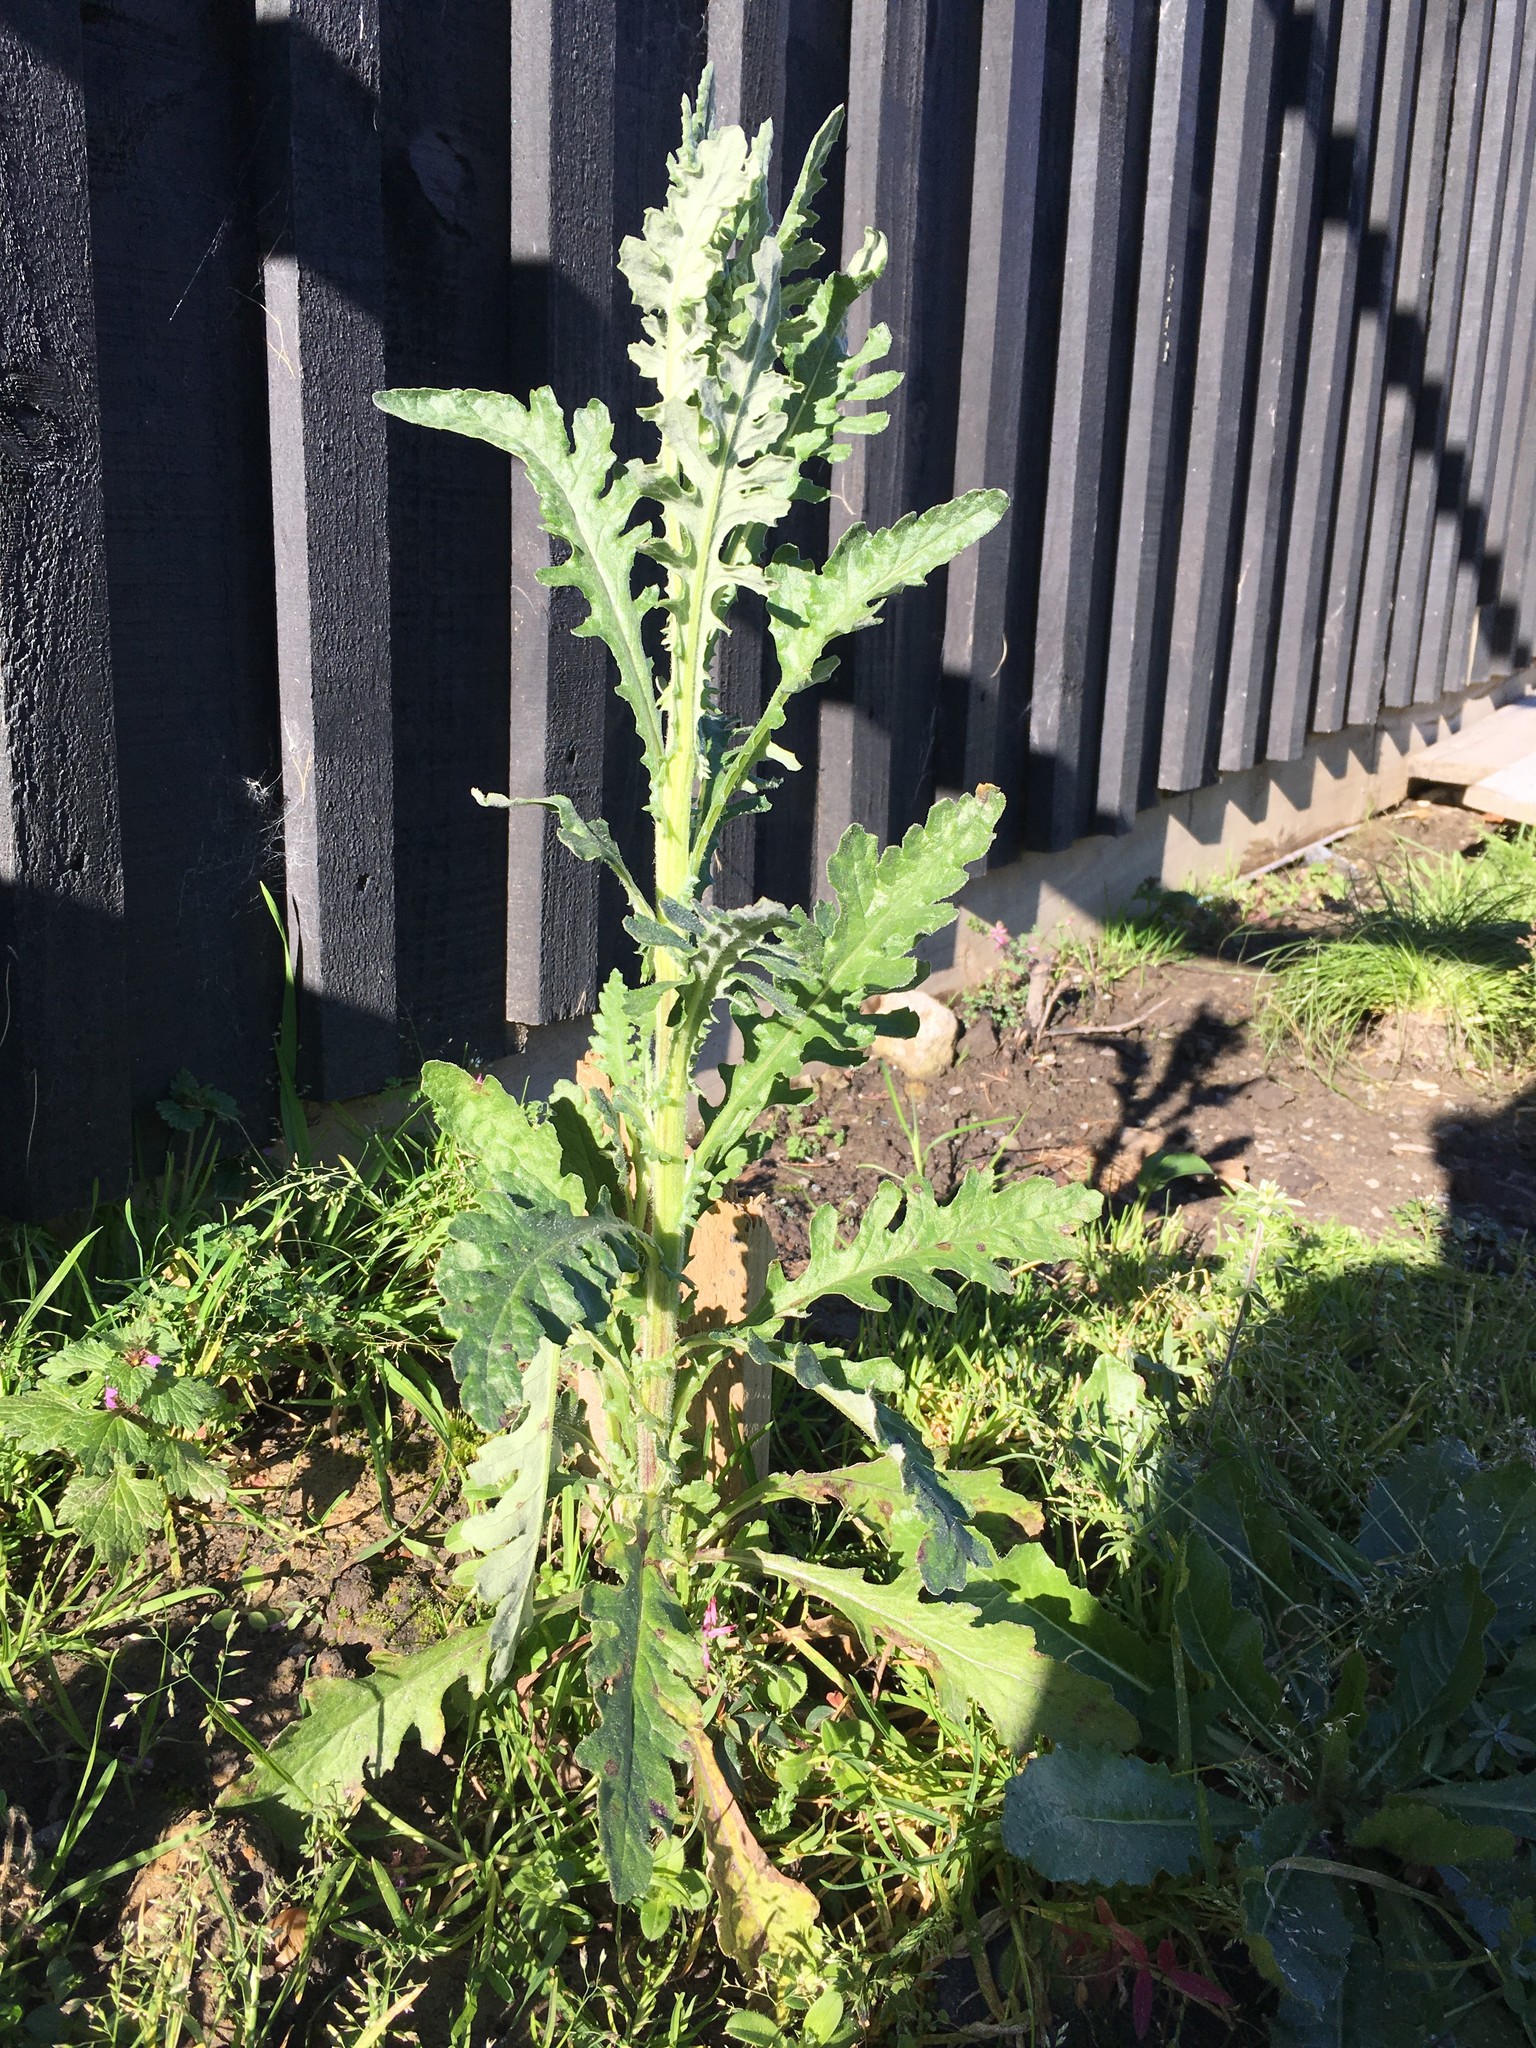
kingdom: Plantae
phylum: Tracheophyta
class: Magnoliopsida
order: Asterales
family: Asteraceae
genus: Senecio
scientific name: Senecio glomeratus
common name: Cutleaf burnweed
